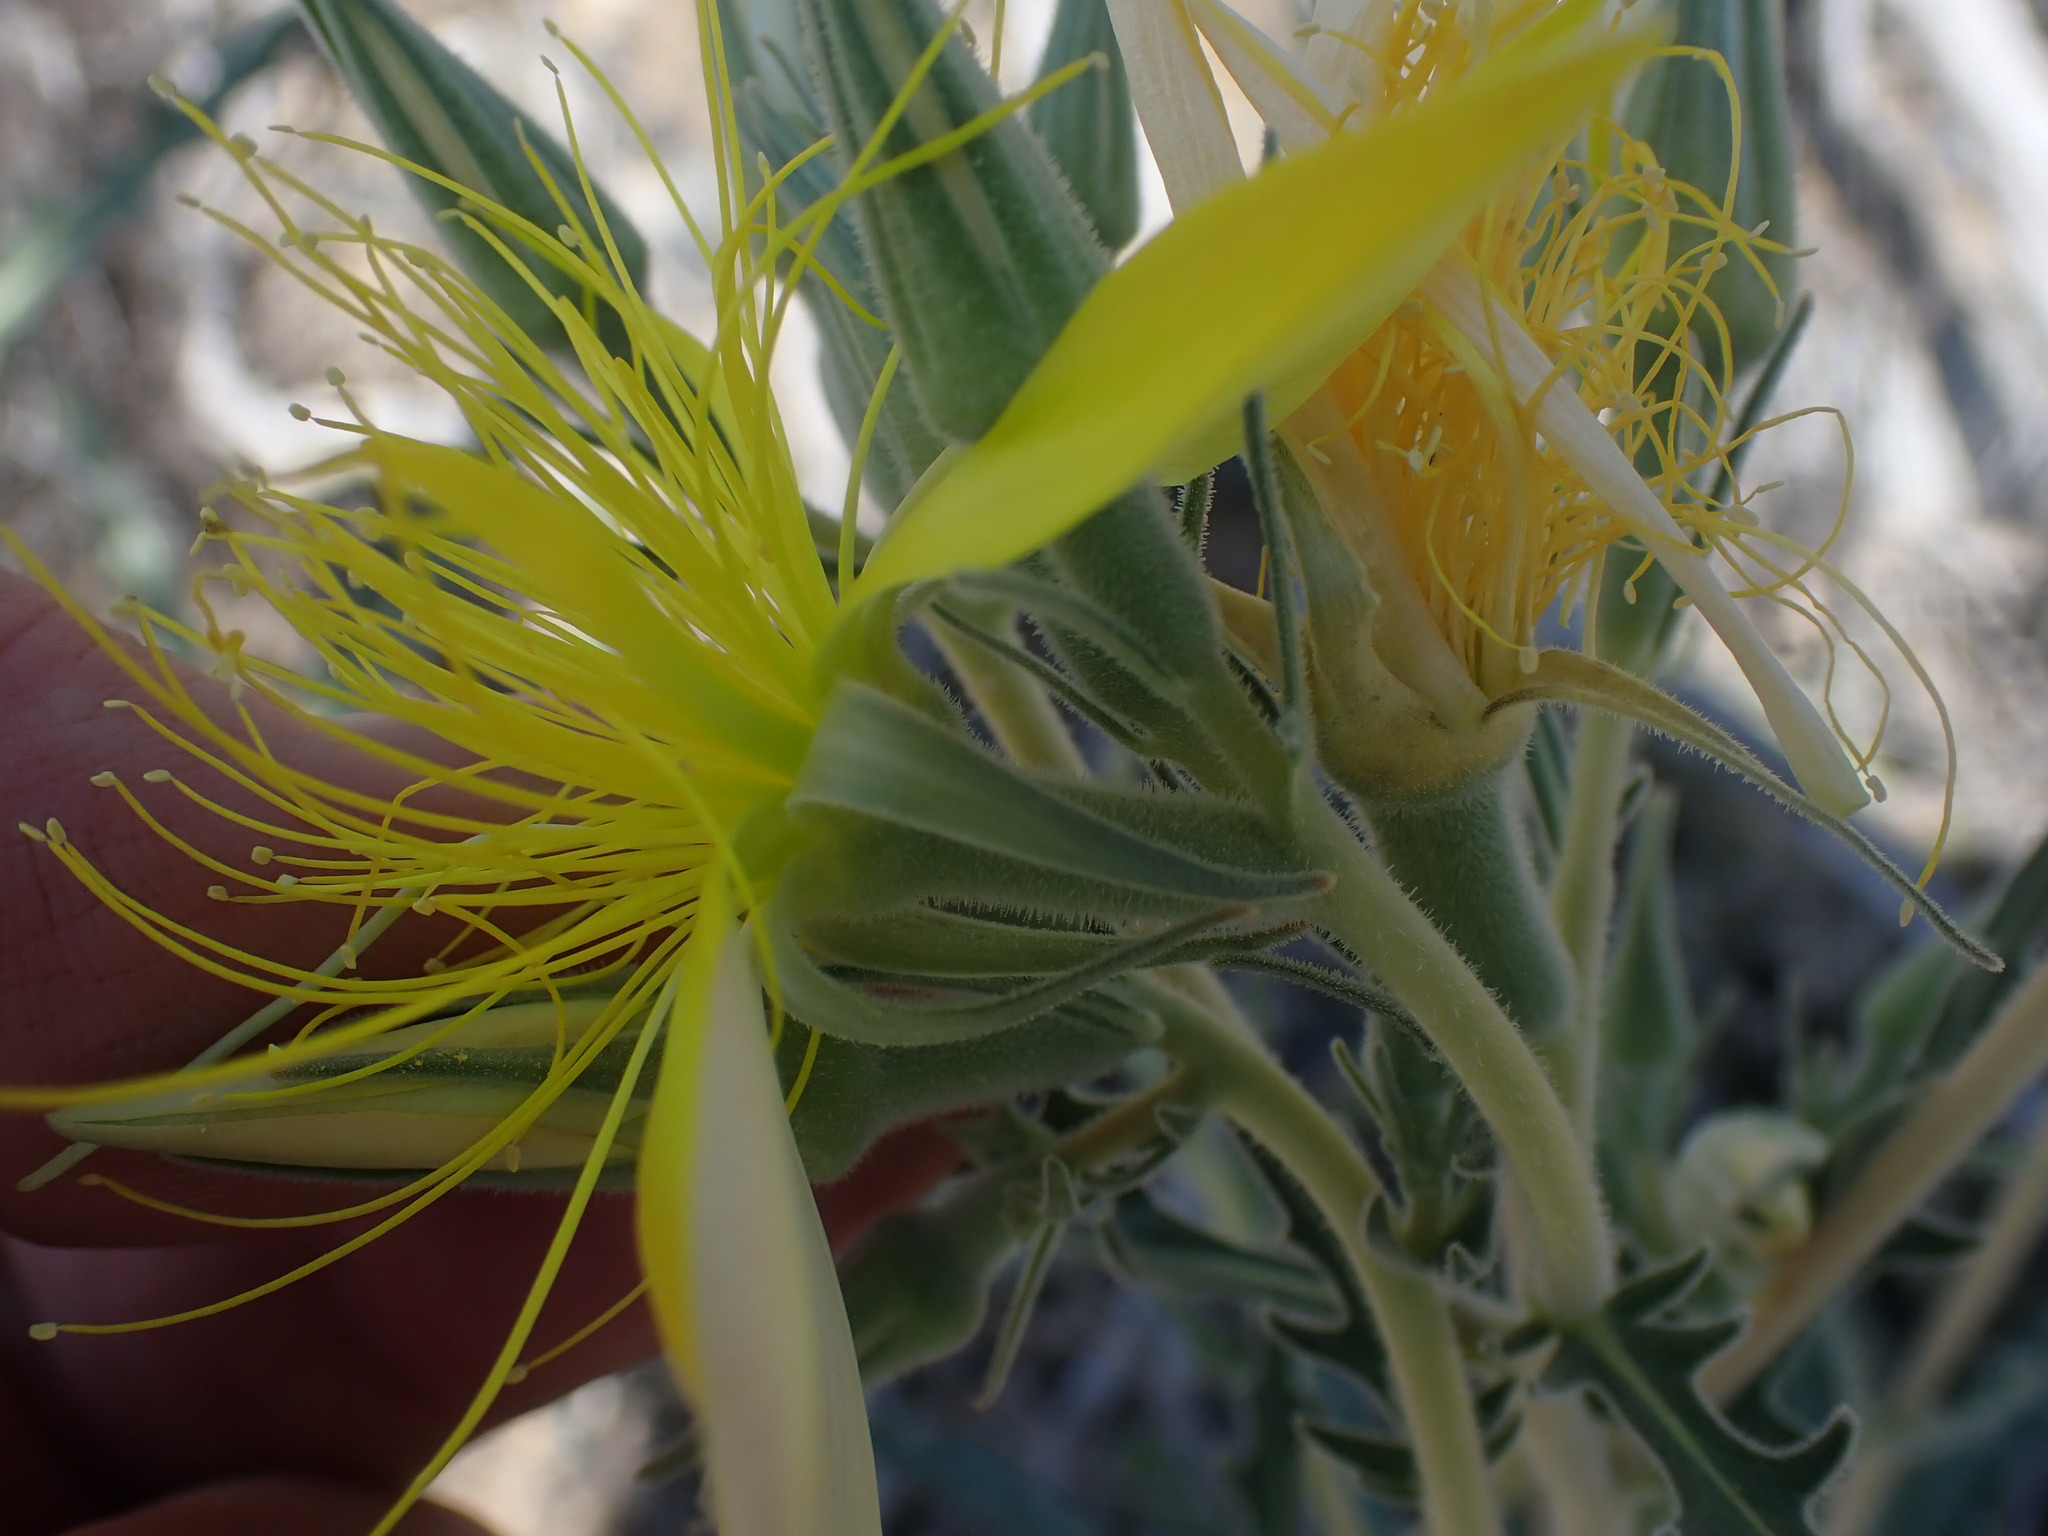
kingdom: Plantae
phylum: Tracheophyta
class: Magnoliopsida
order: Cornales
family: Loasaceae
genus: Mentzelia
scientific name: Mentzelia laevicaulis
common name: Smooth-stem blazingstar
